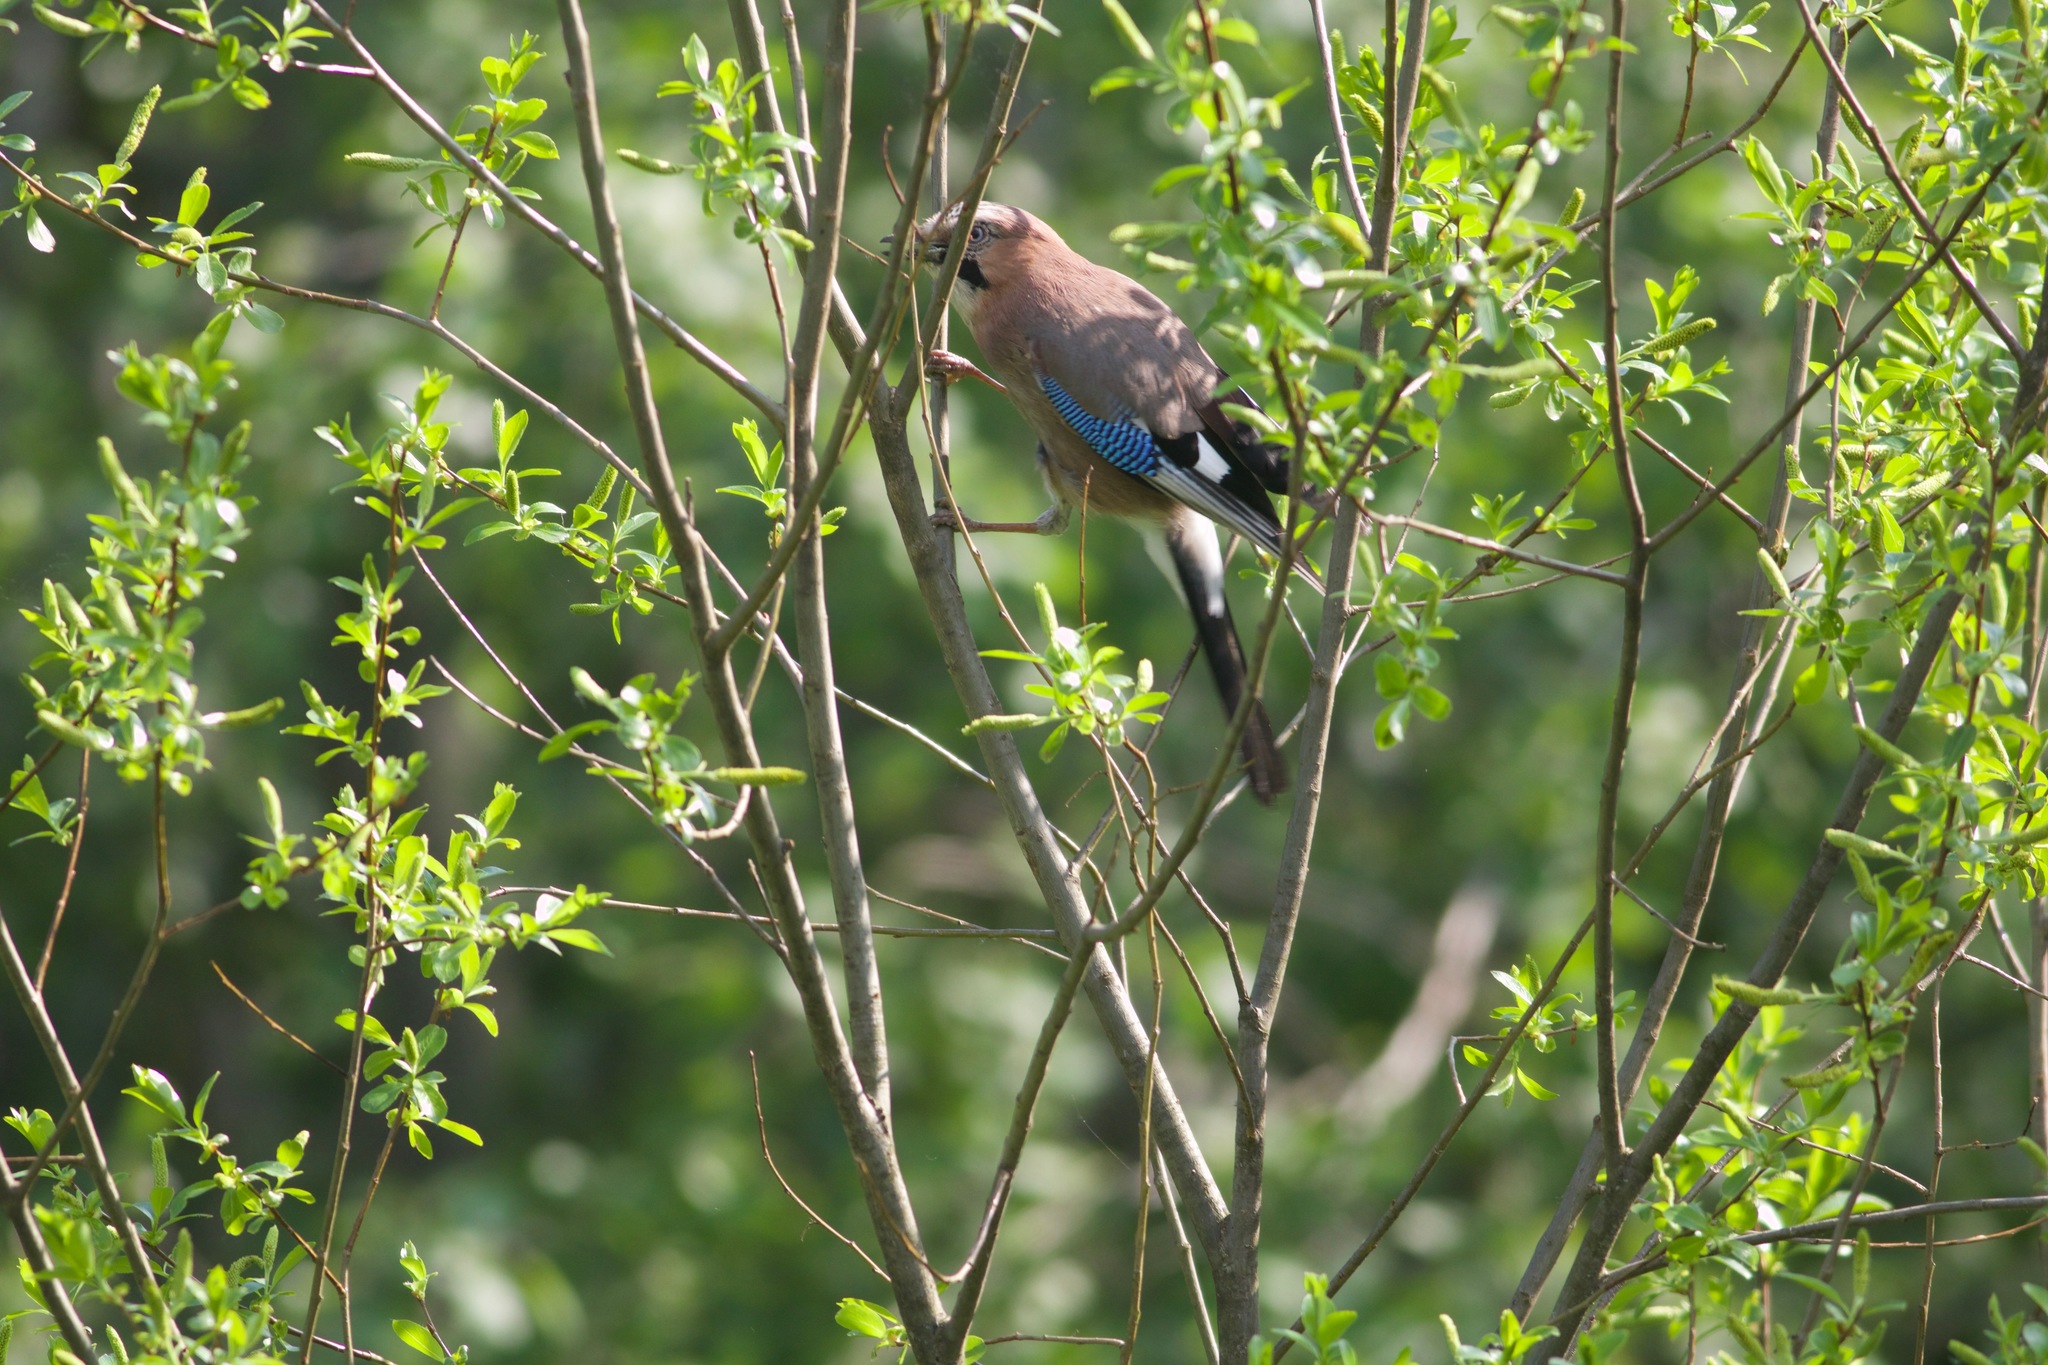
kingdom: Animalia
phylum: Chordata
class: Aves
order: Passeriformes
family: Corvidae
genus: Garrulus
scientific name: Garrulus glandarius
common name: Eurasian jay
